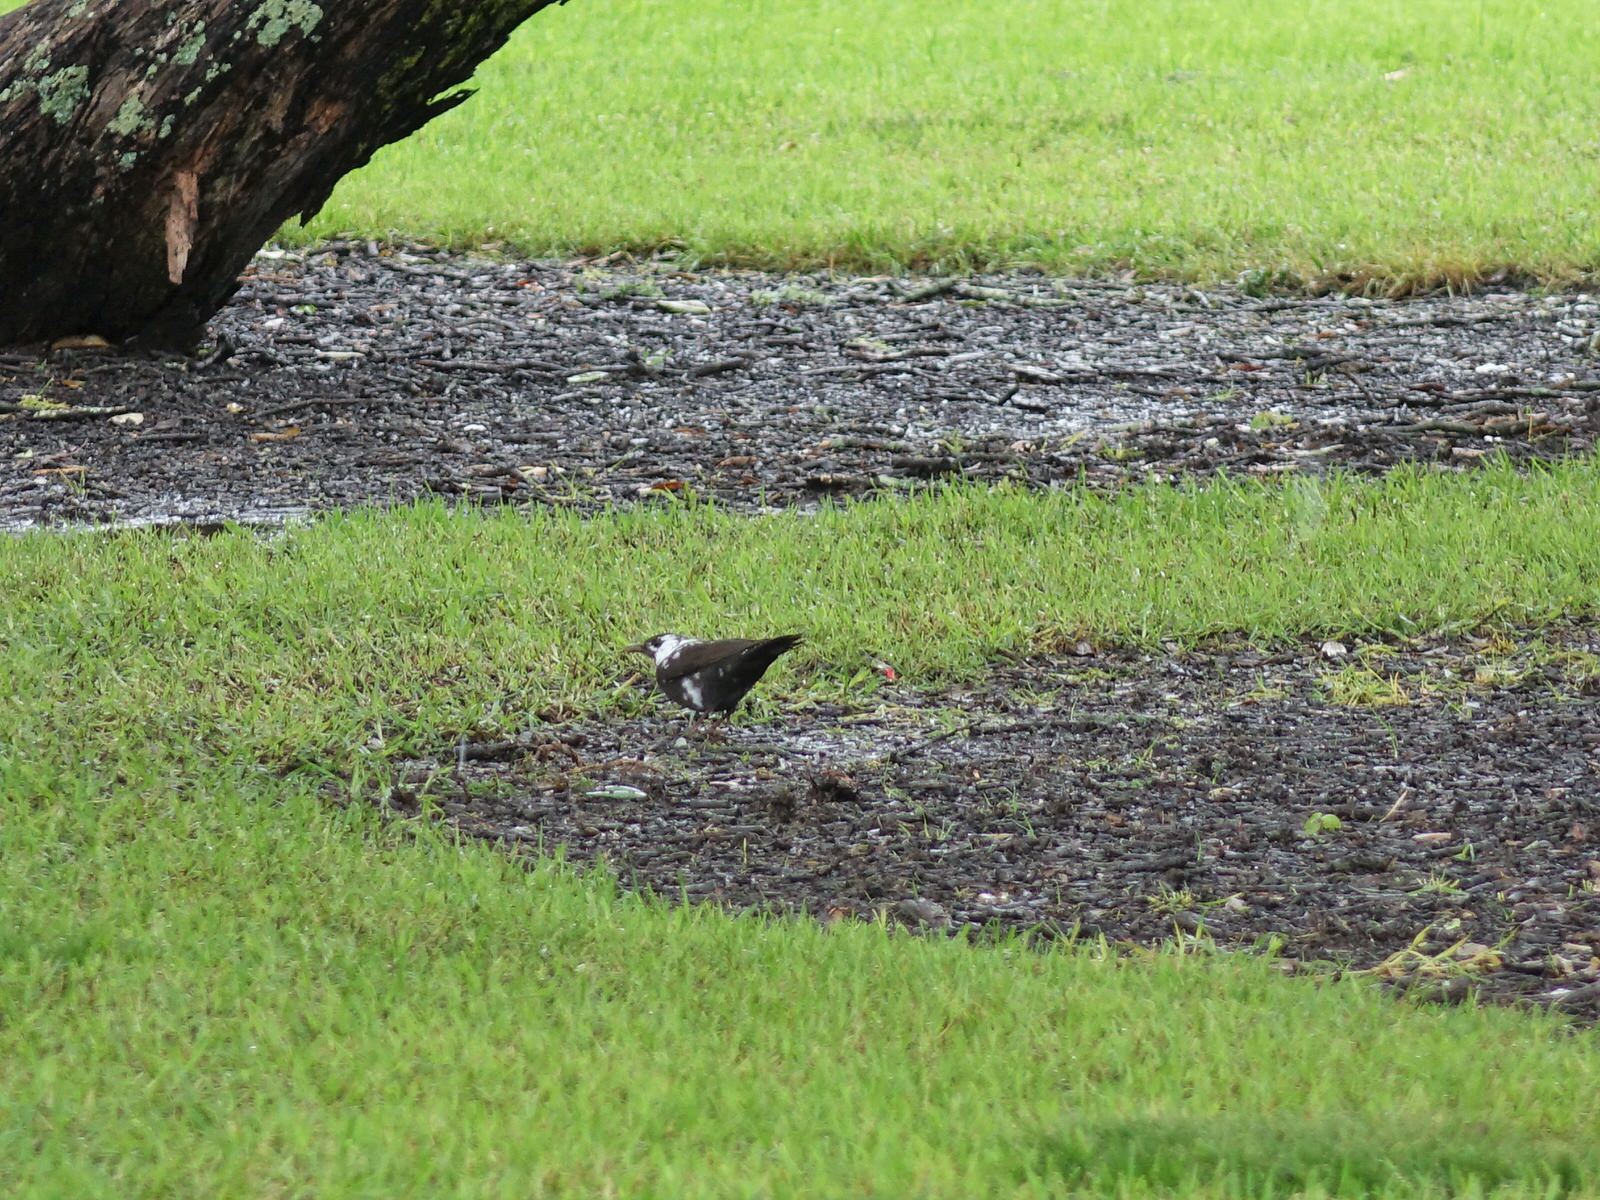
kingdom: Animalia
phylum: Chordata
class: Aves
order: Passeriformes
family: Turdidae
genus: Turdus
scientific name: Turdus merula
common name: Common blackbird
